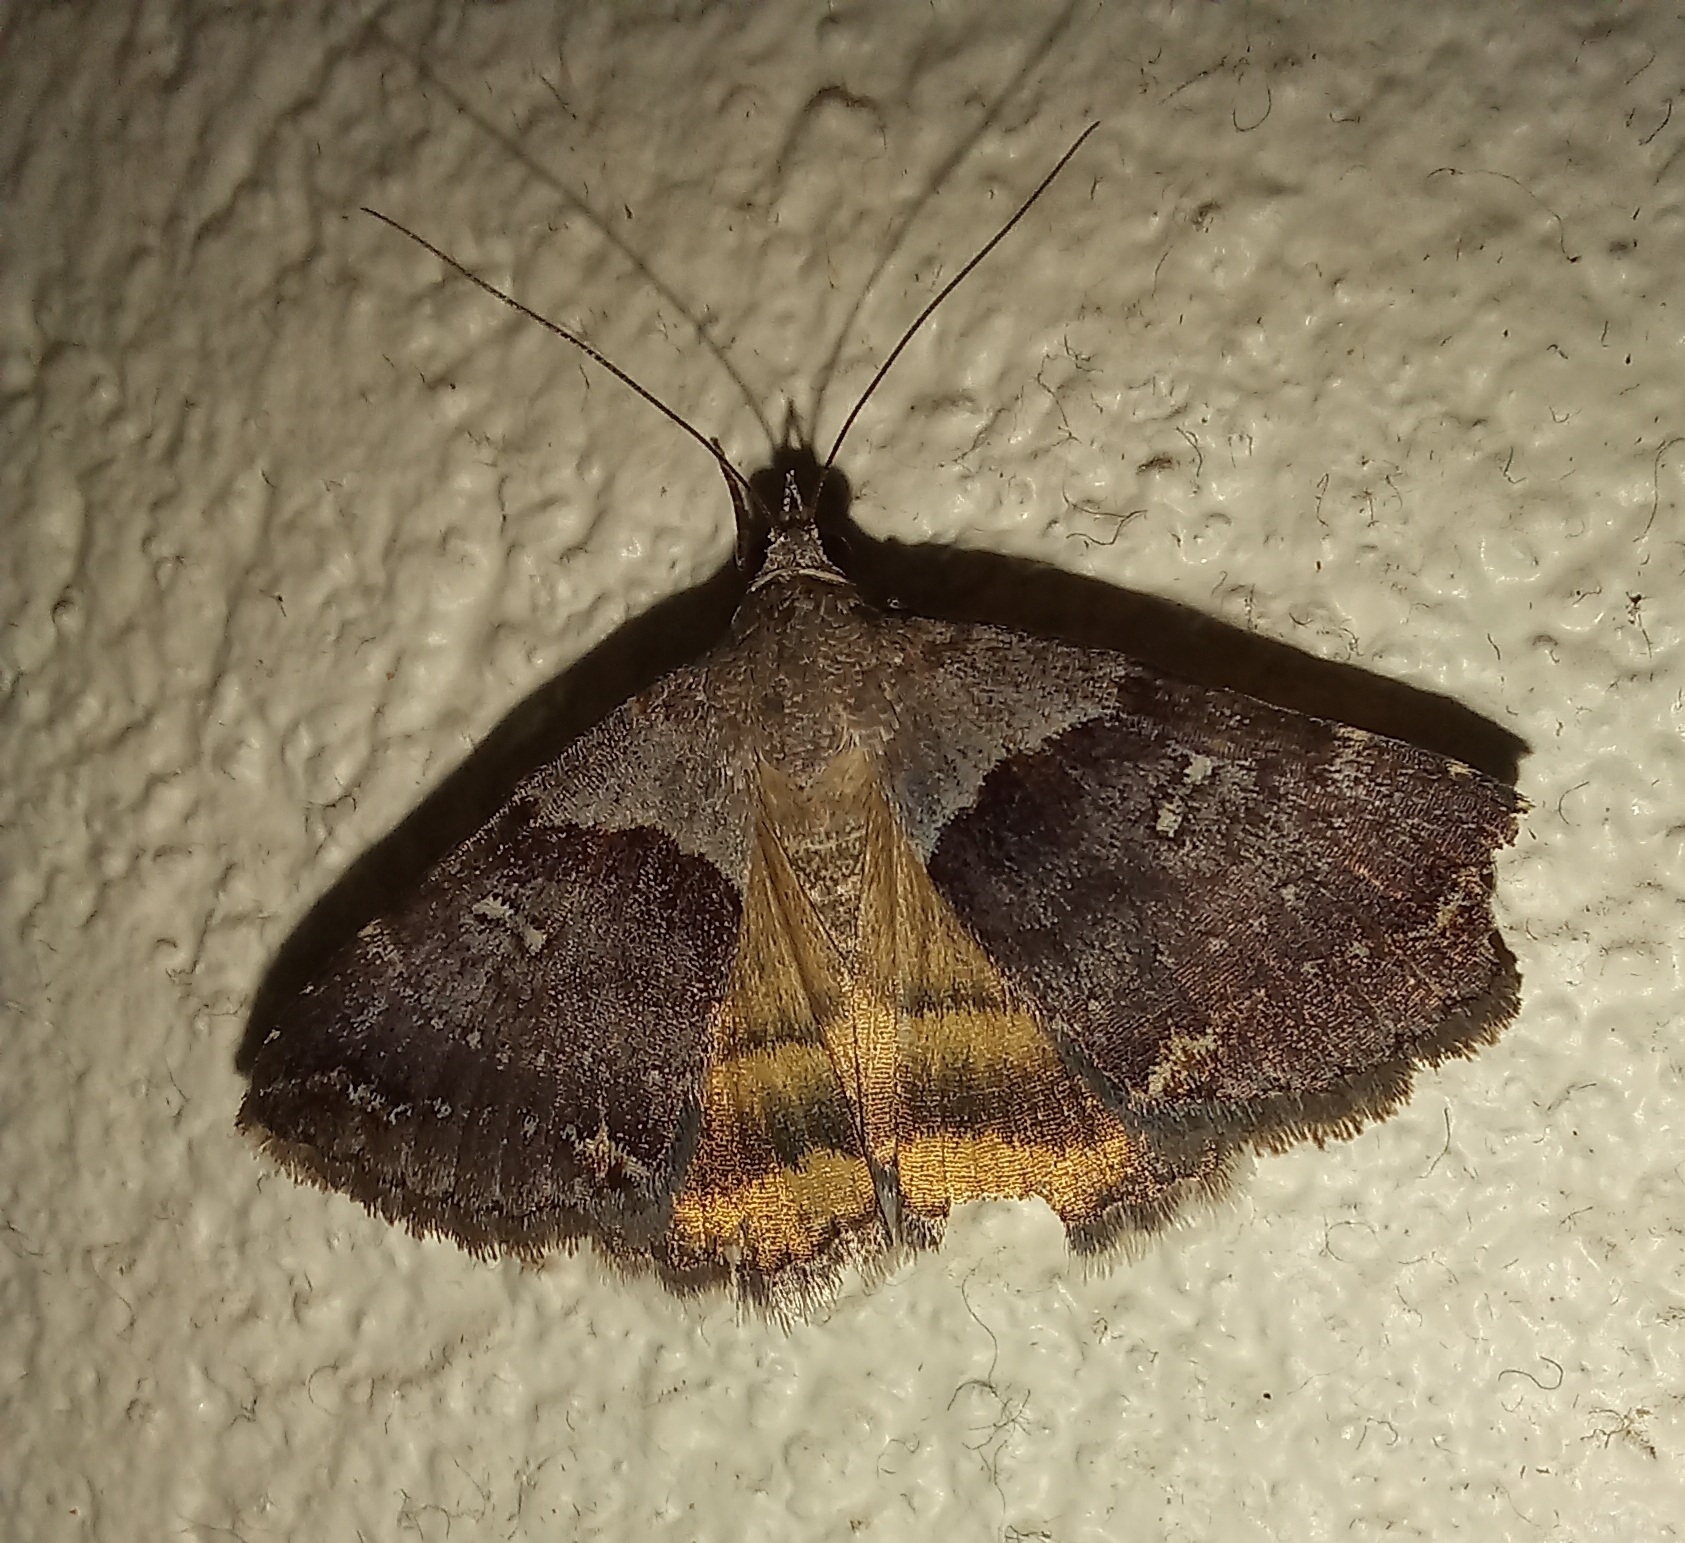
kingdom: Animalia
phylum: Arthropoda
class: Insecta
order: Lepidoptera
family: Erebidae
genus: Plecopterodes
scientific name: Plecopterodes moderata
